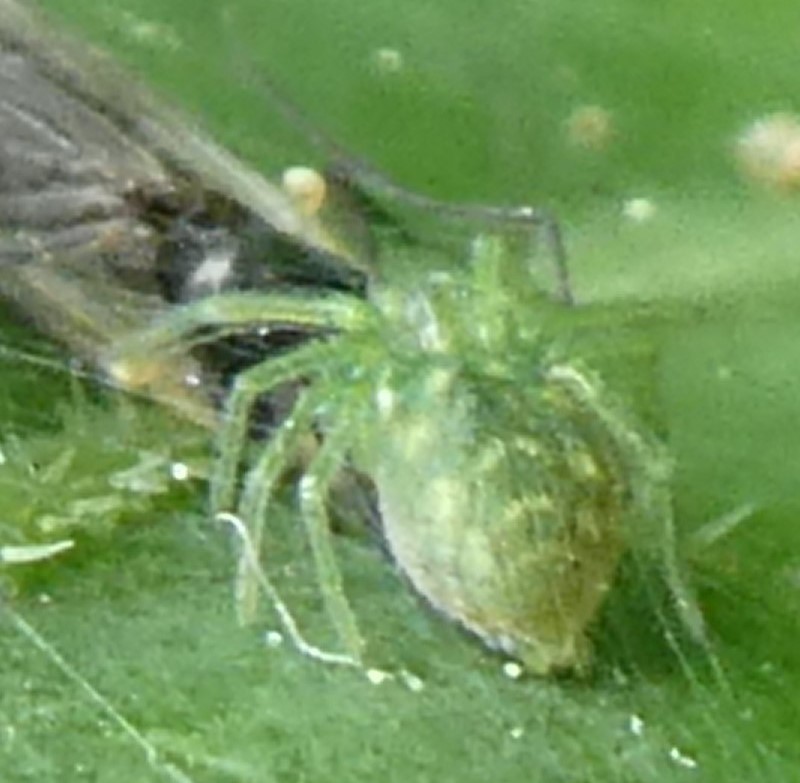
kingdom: Animalia
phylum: Arthropoda
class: Arachnida
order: Araneae
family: Dictynidae
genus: Nigma
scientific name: Nigma walckenaeri
